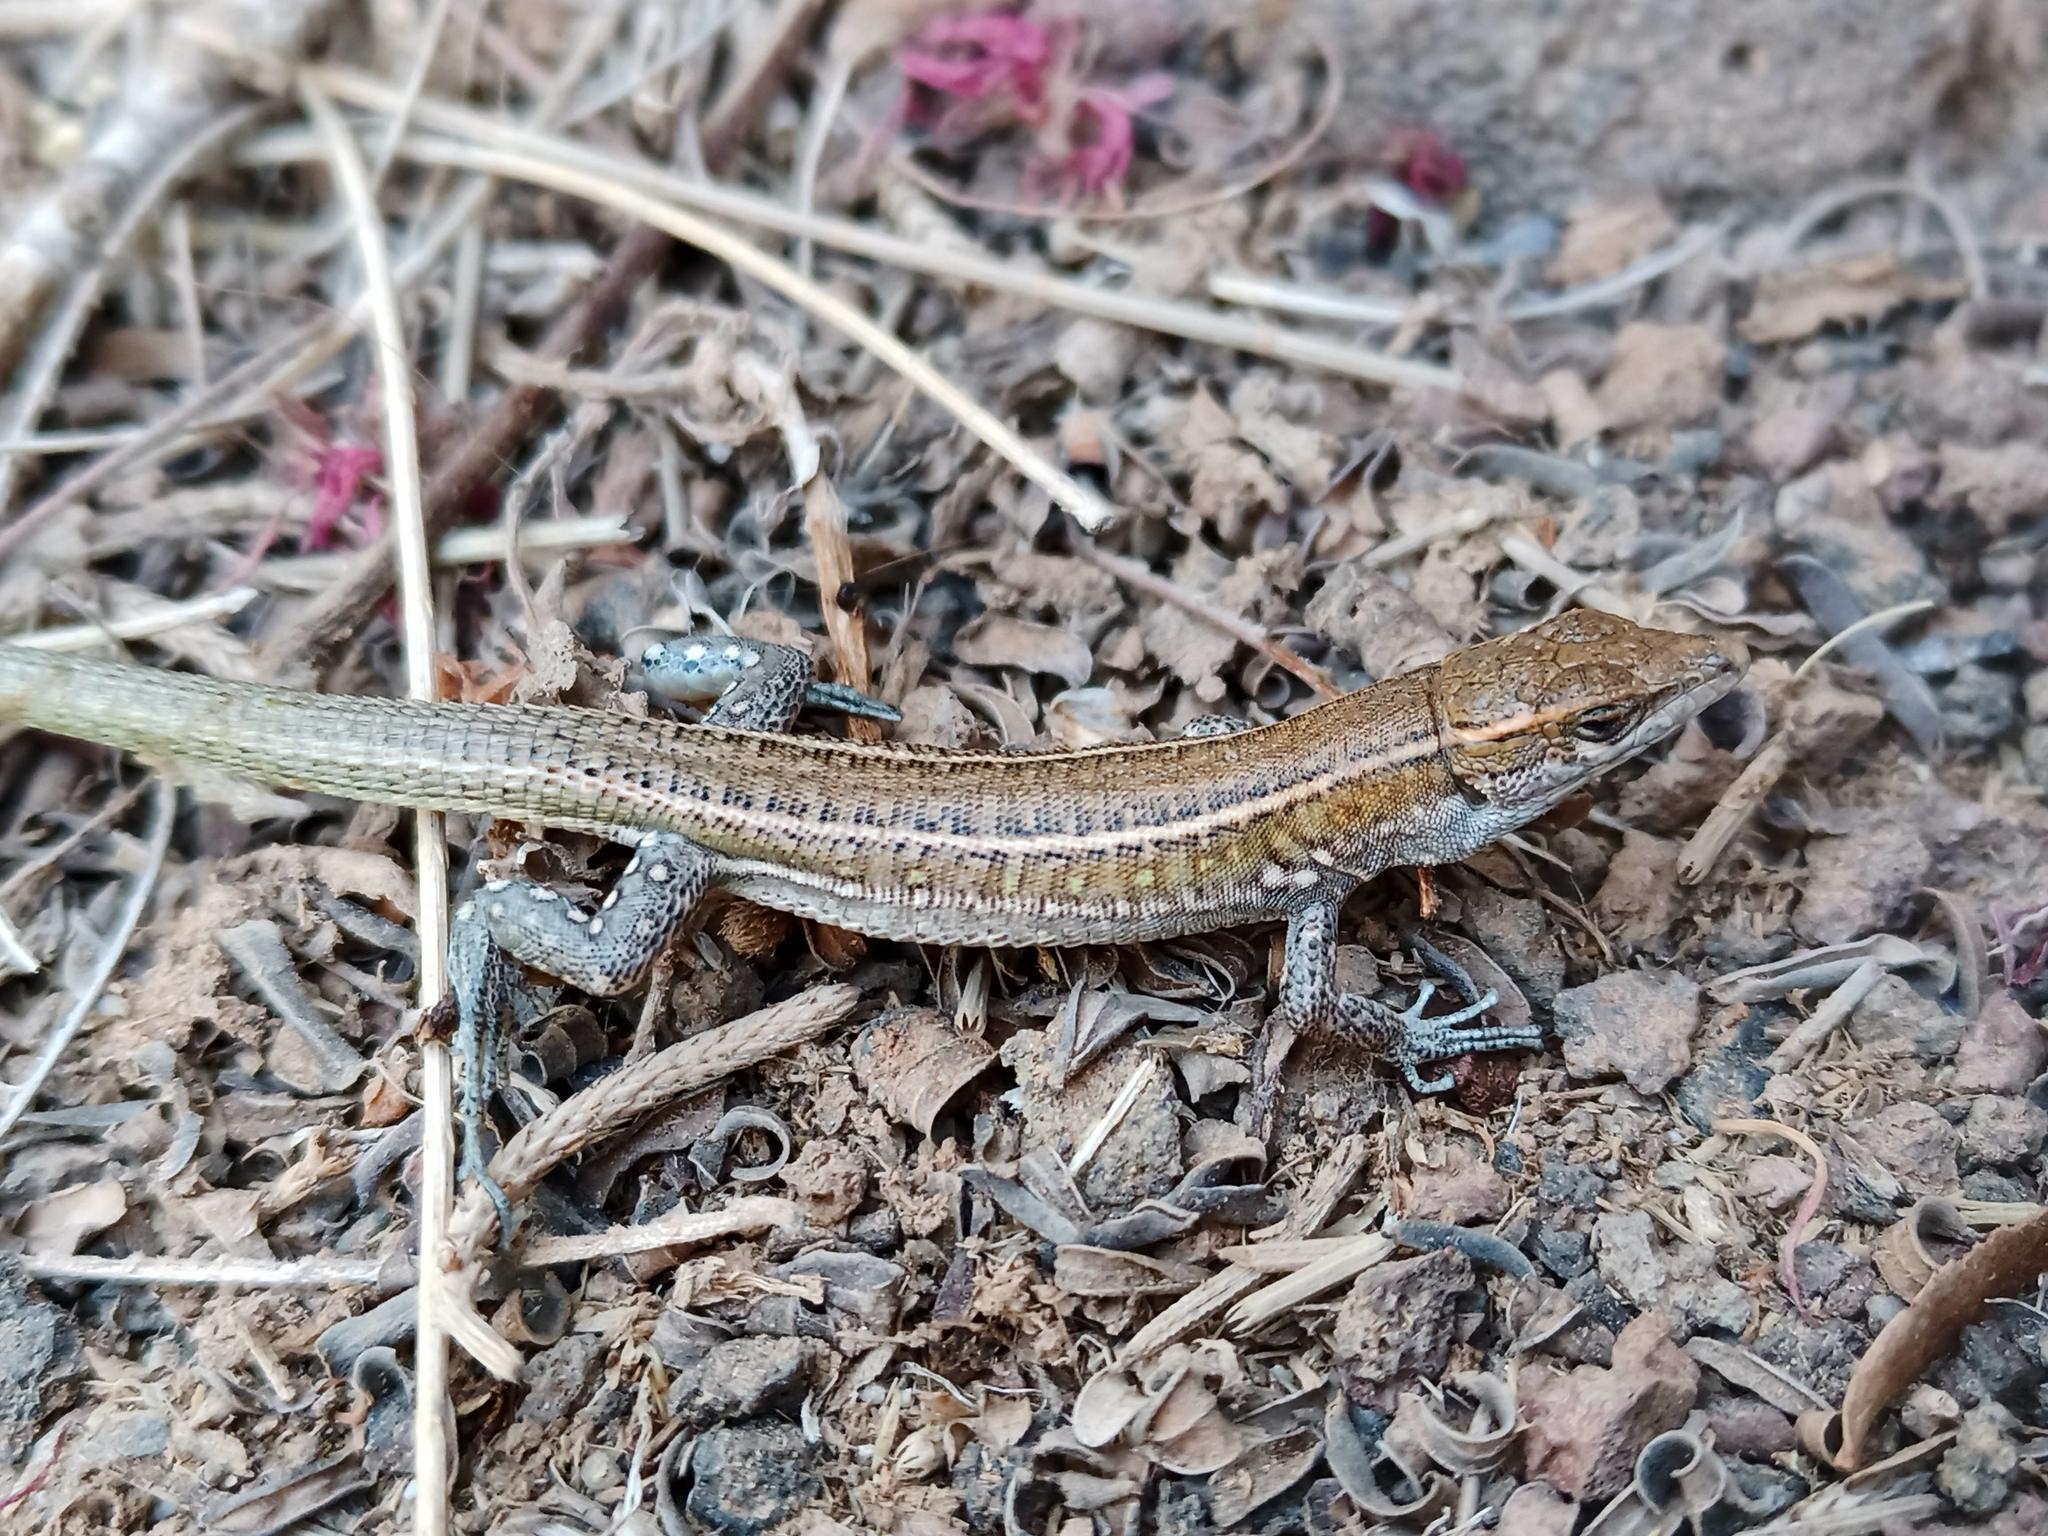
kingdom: Animalia
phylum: Chordata
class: Squamata
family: Lacertidae
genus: Gallotia
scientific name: Gallotia atlantica
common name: Atlantic lizard
